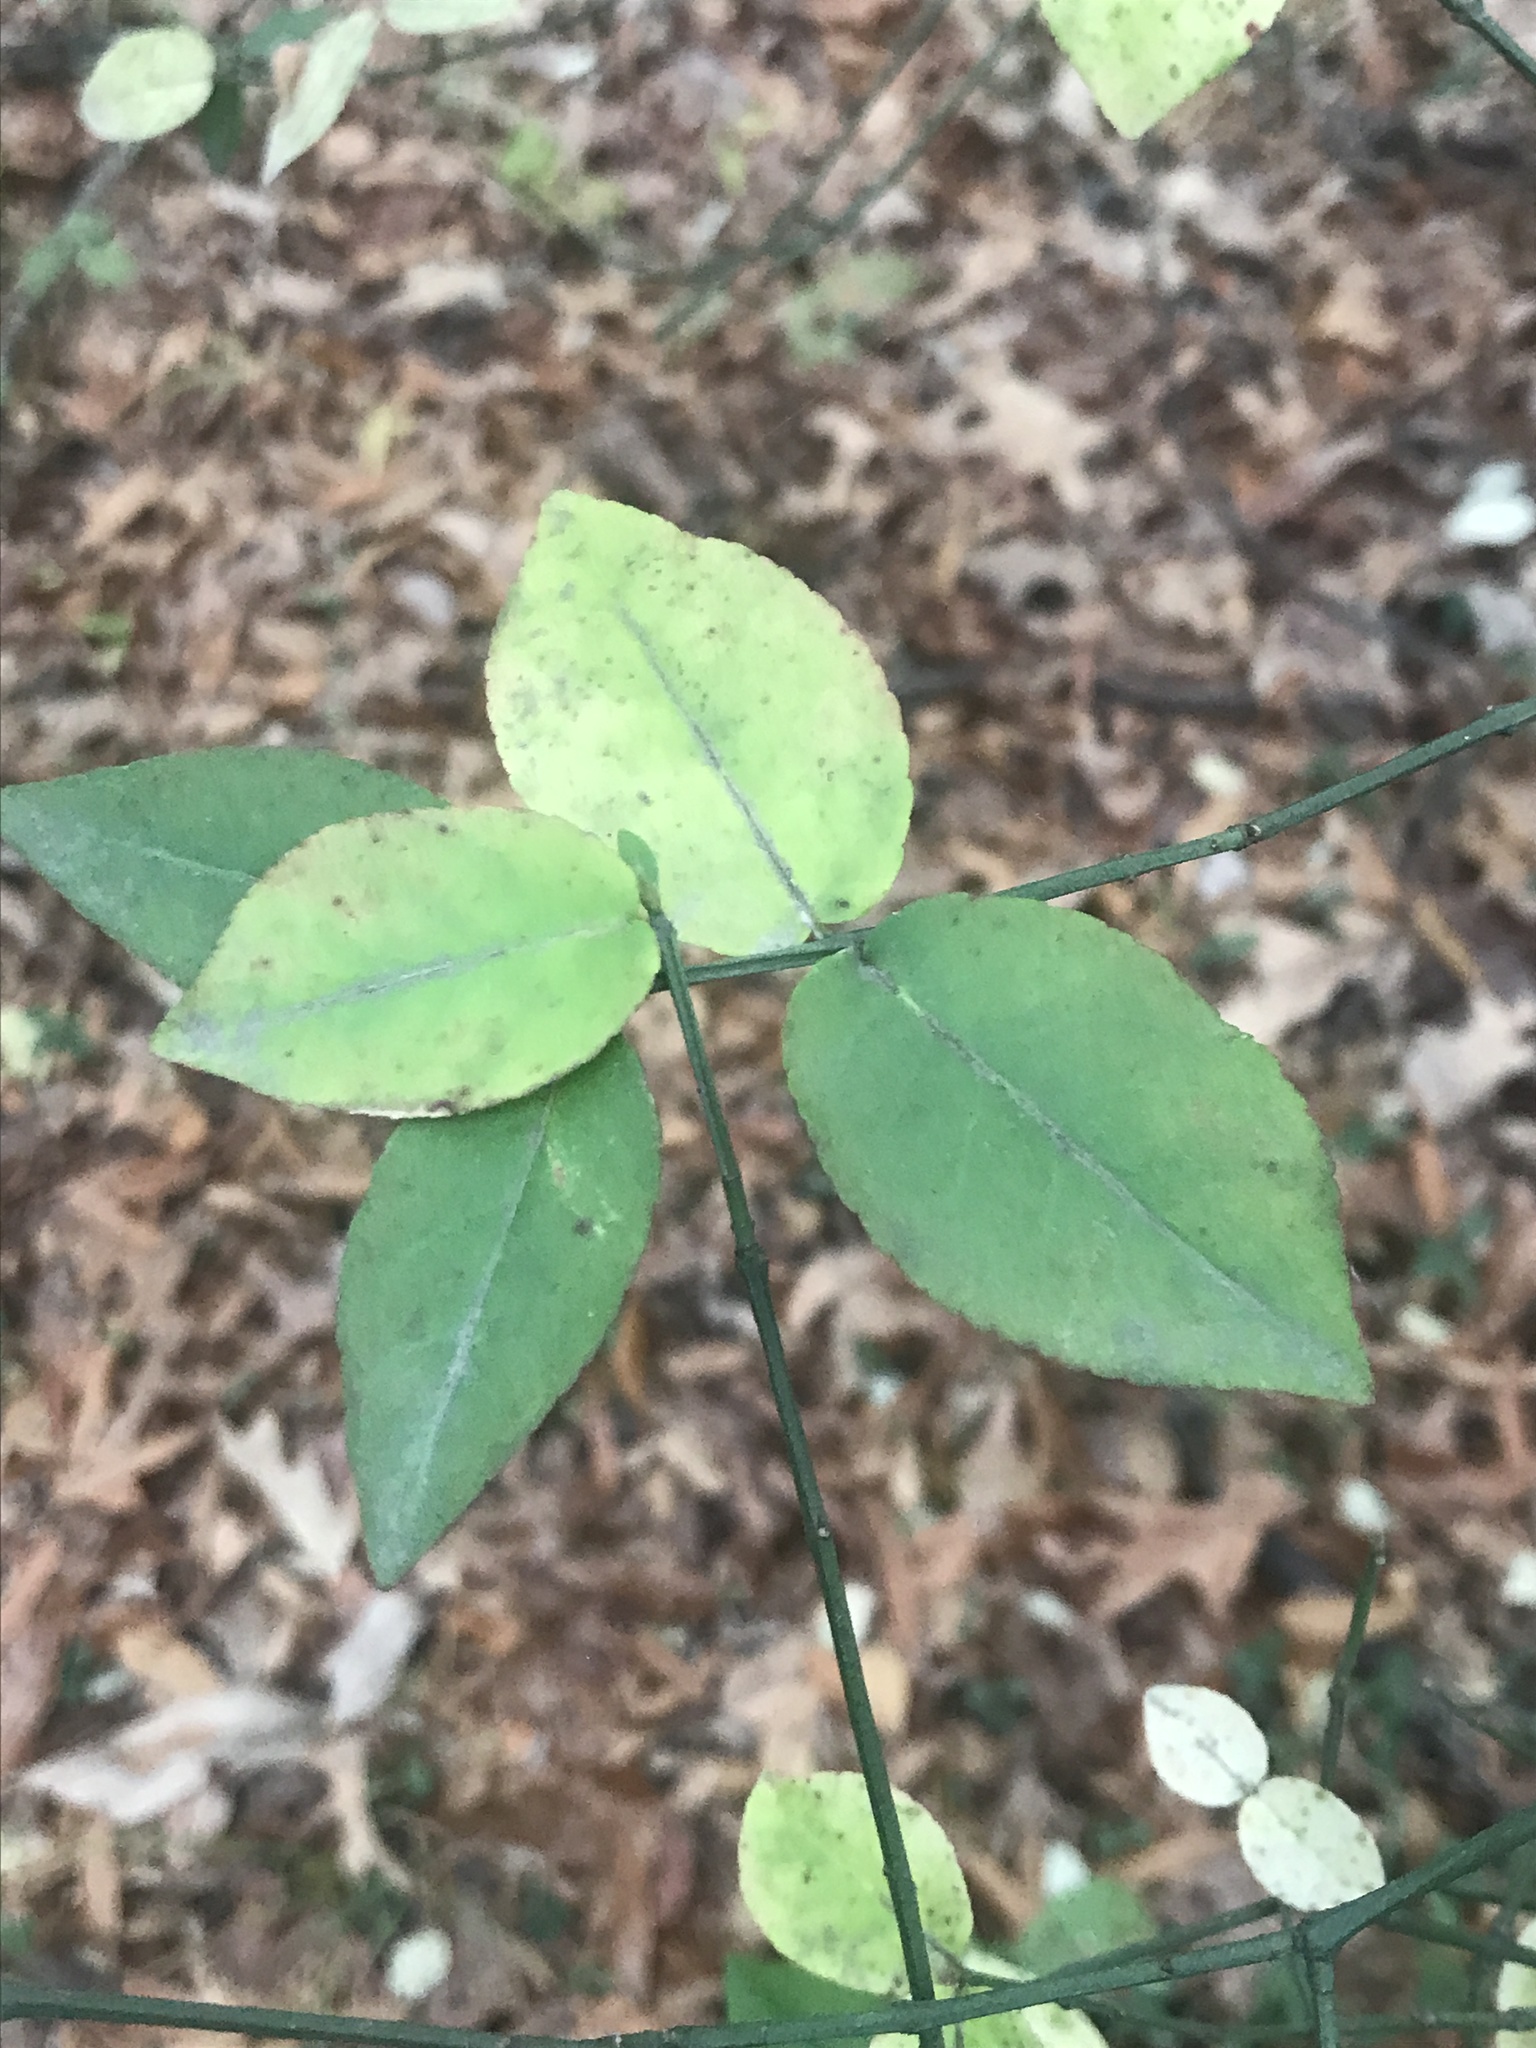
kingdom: Plantae
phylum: Tracheophyta
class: Magnoliopsida
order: Celastrales
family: Celastraceae
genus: Euonymus
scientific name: Euonymus americanus
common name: Bursting-heart
